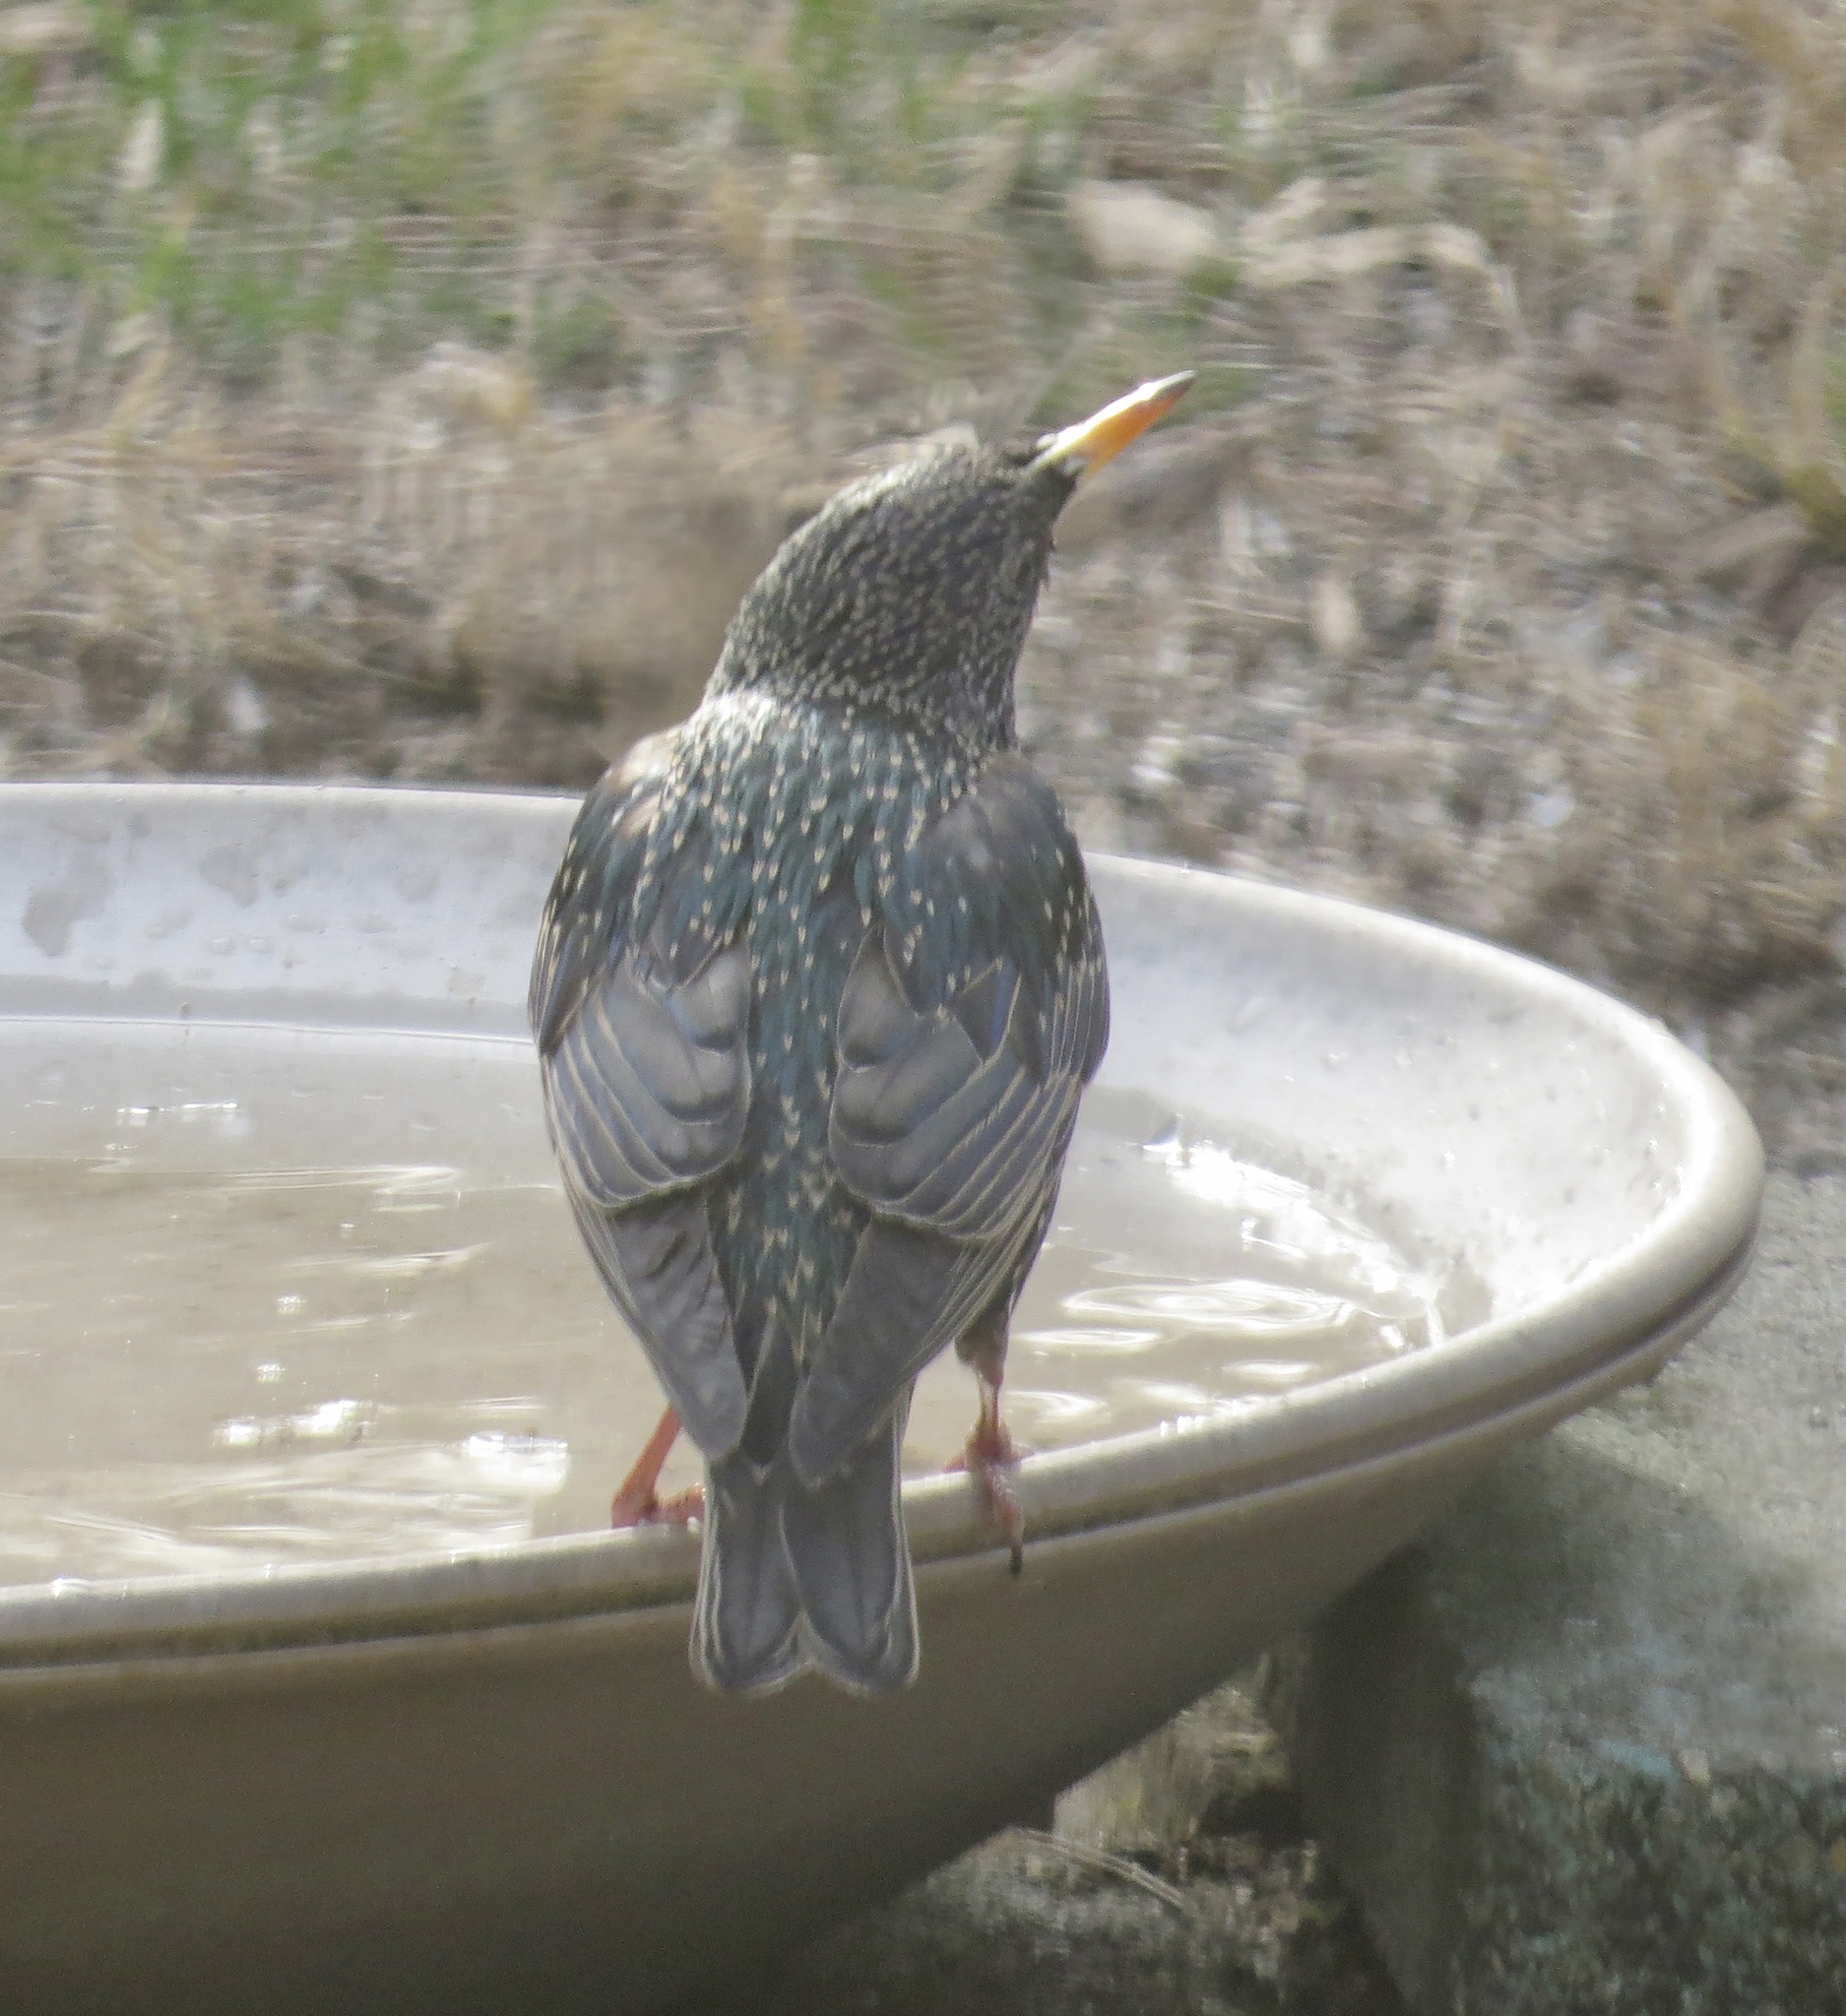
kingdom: Animalia
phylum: Chordata
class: Aves
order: Passeriformes
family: Sturnidae
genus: Sturnus
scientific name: Sturnus vulgaris
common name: Common starling
